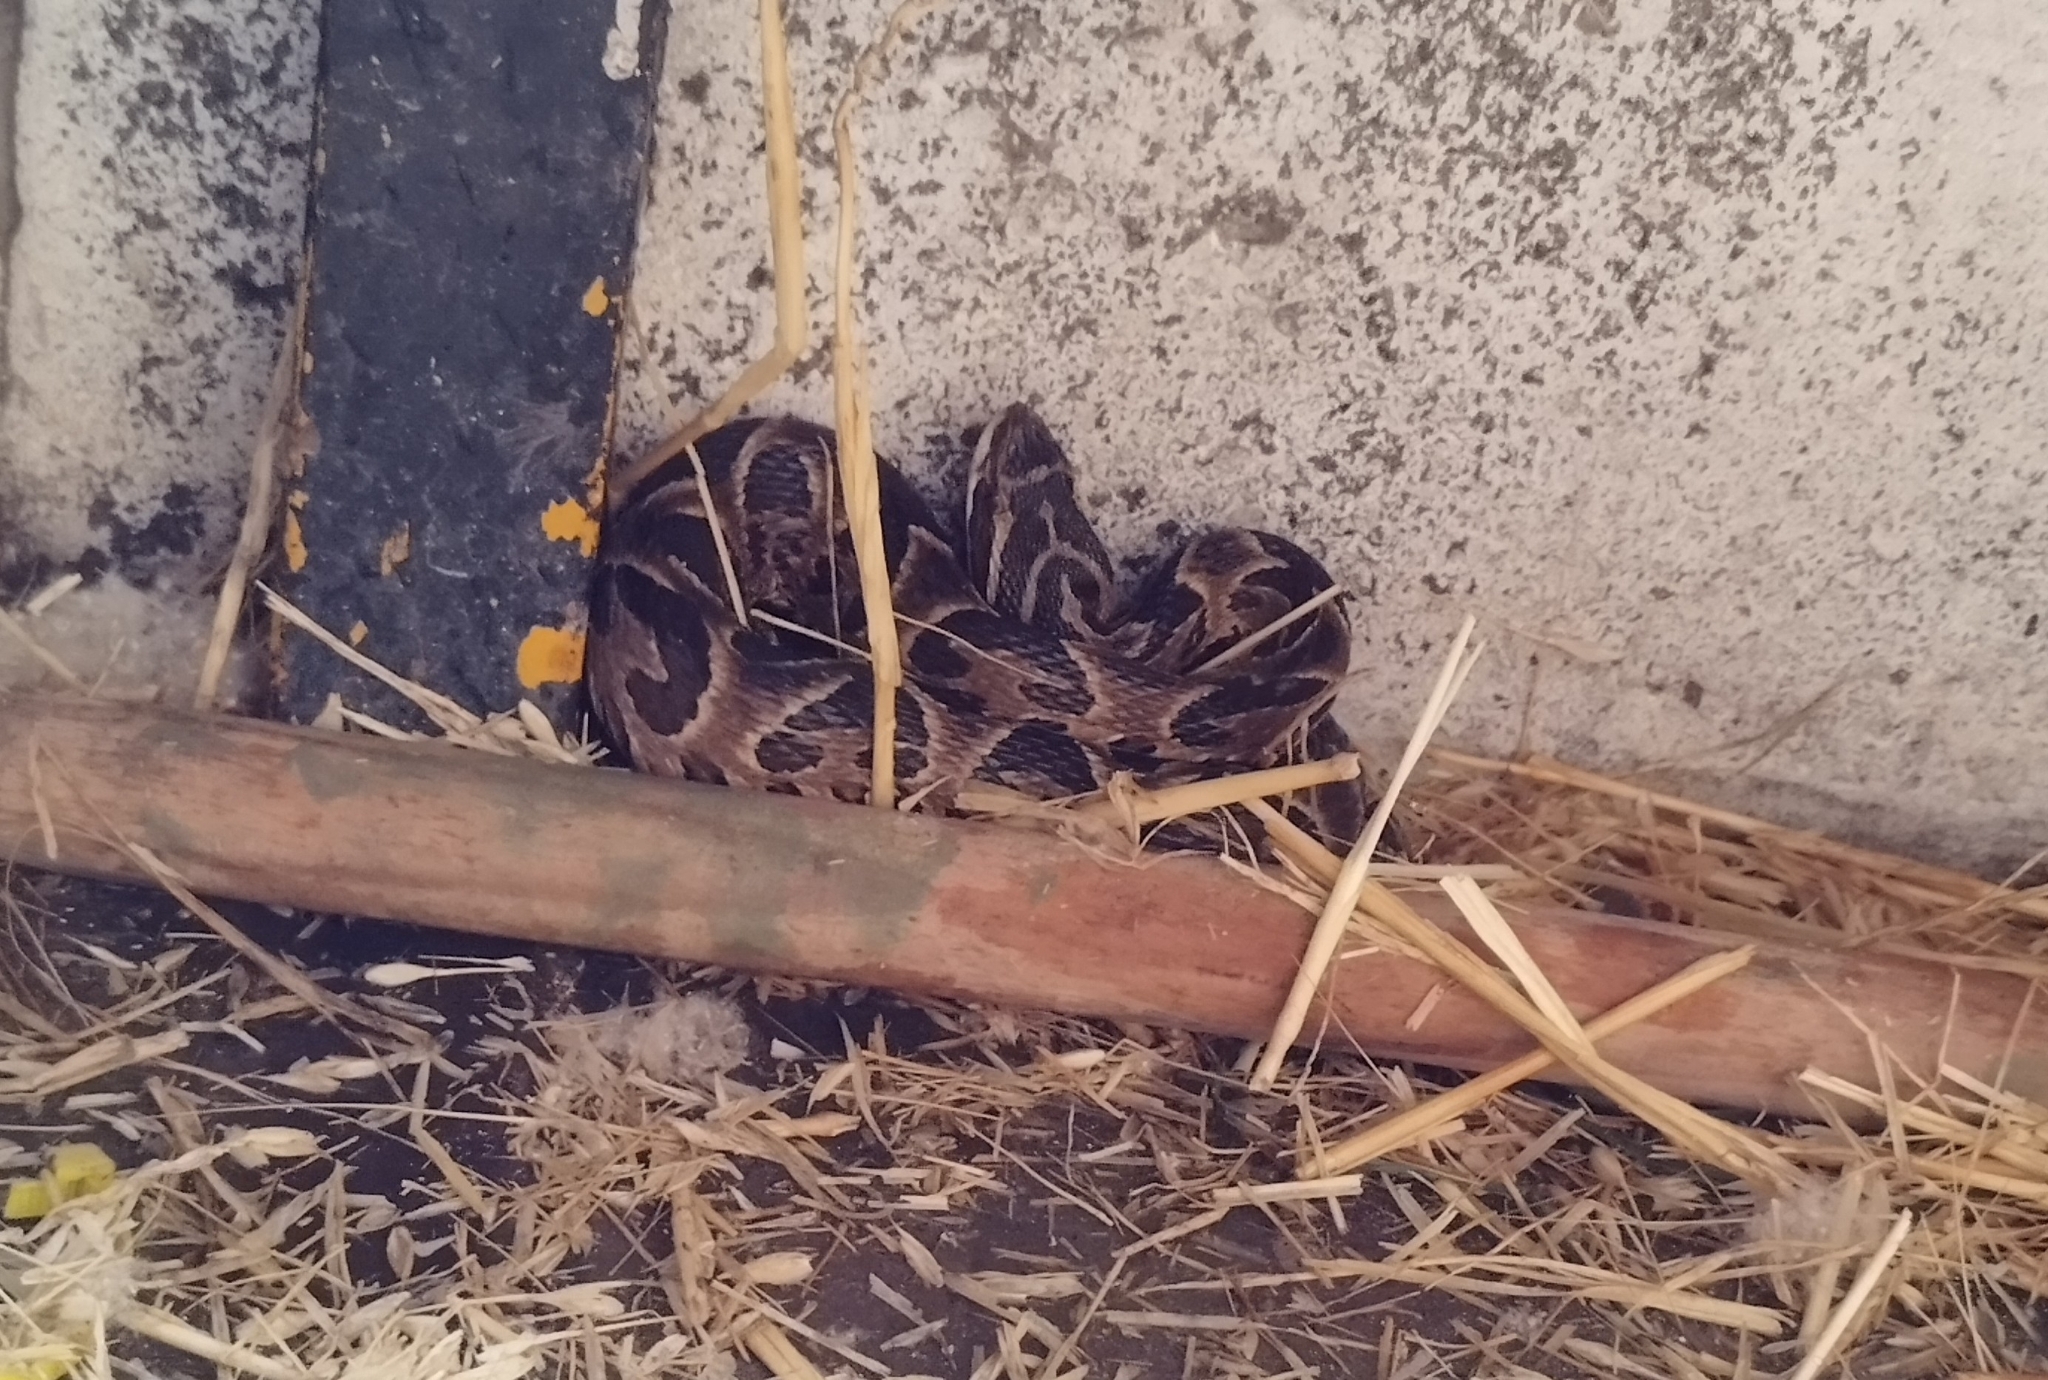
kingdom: Animalia
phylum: Chordata
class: Squamata
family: Viperidae
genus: Bothrops
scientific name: Bothrops alternatus
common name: Urutu
